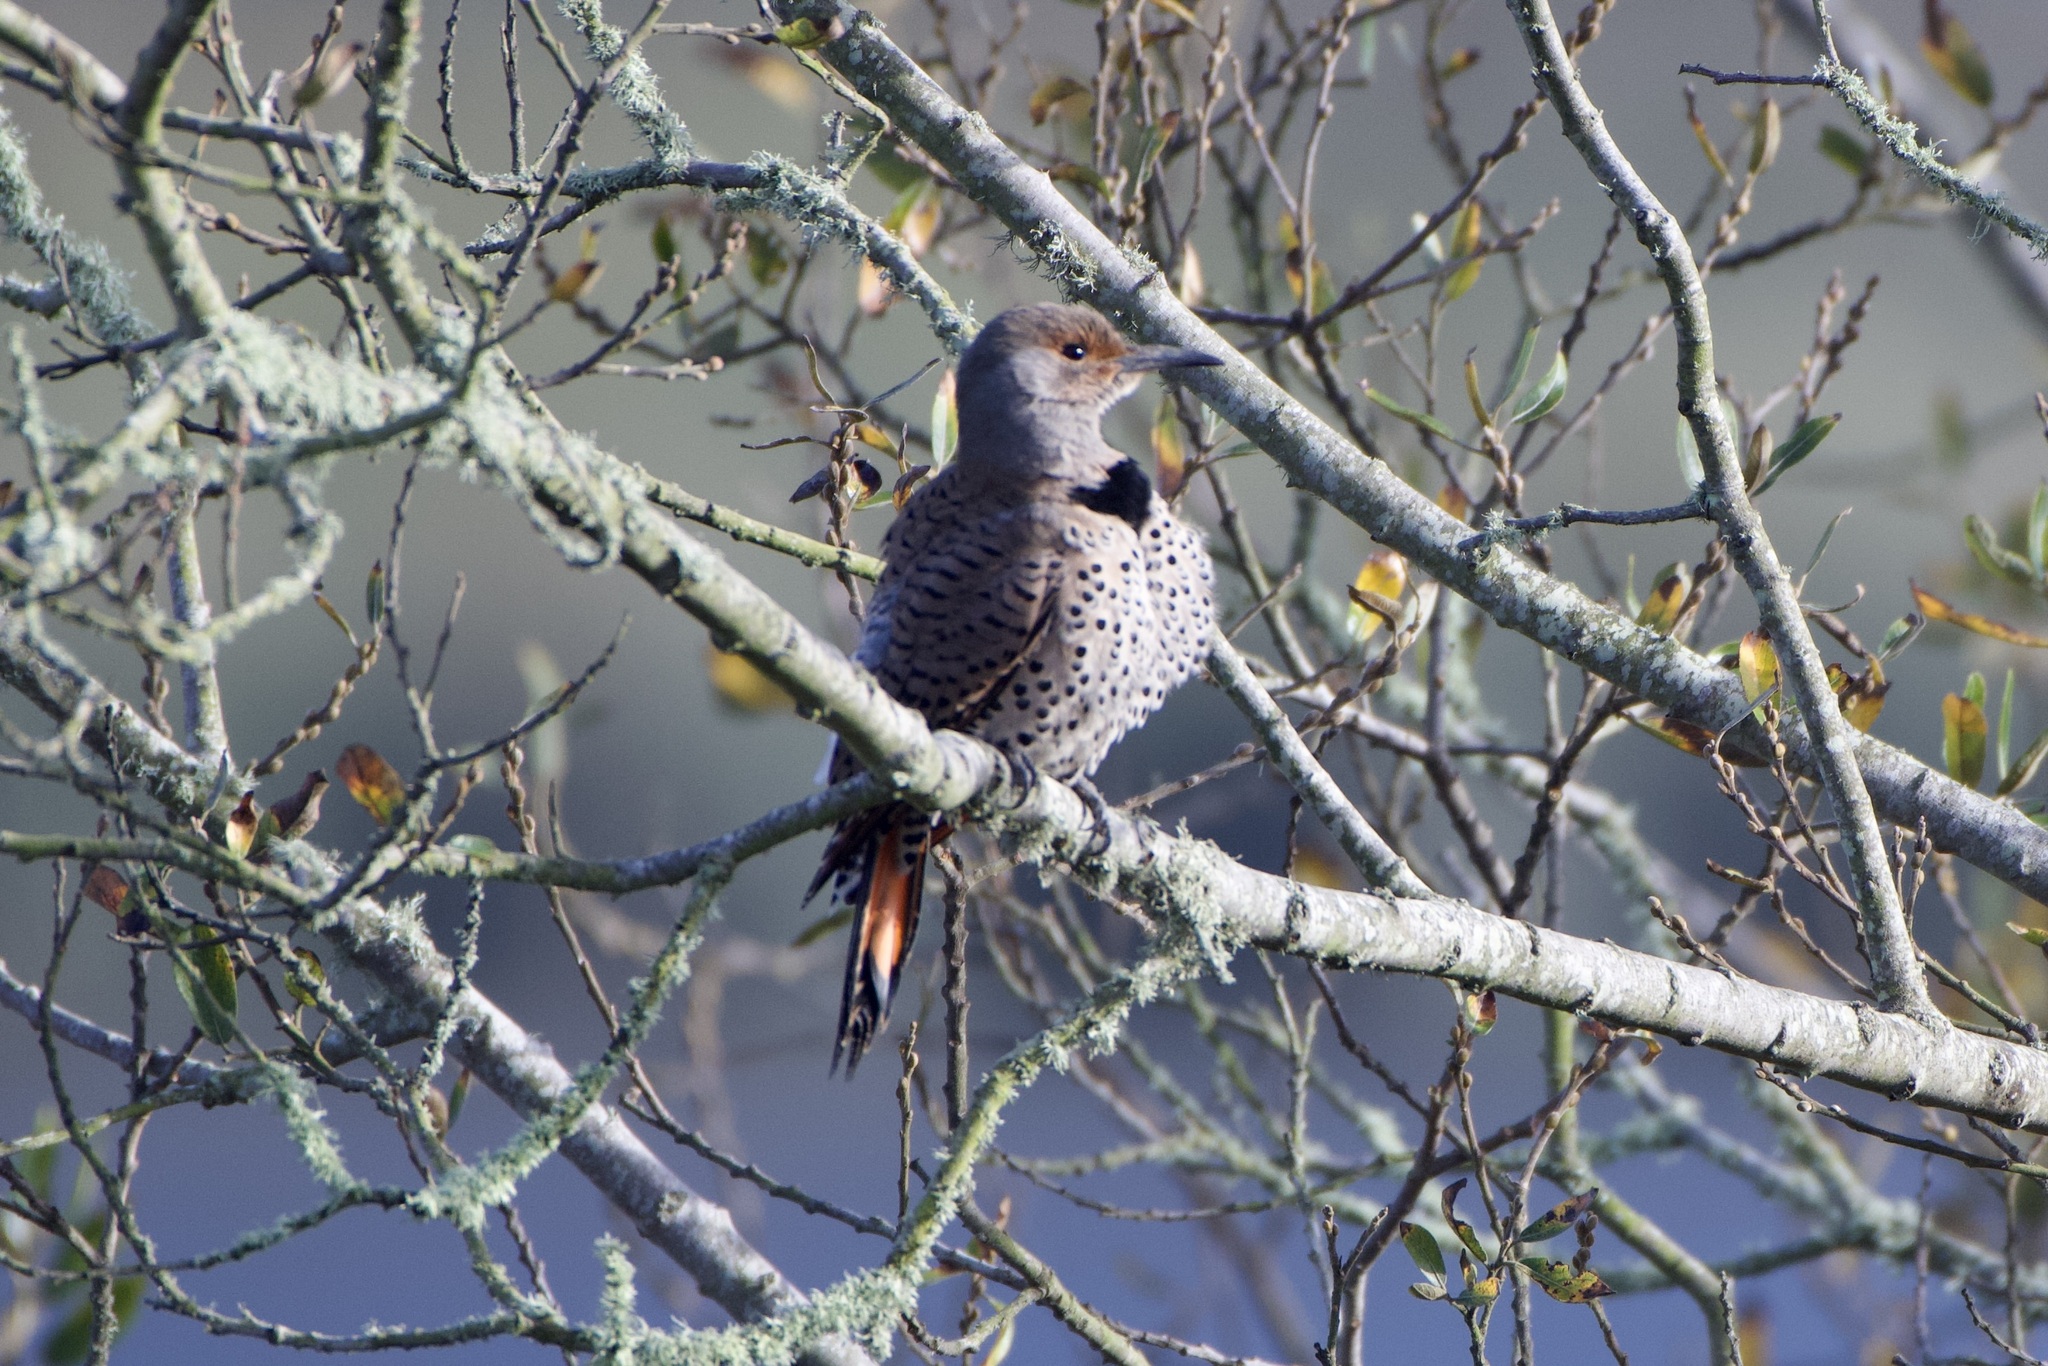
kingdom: Animalia
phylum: Chordata
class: Aves
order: Piciformes
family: Picidae
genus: Colaptes
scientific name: Colaptes auratus
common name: Northern flicker
